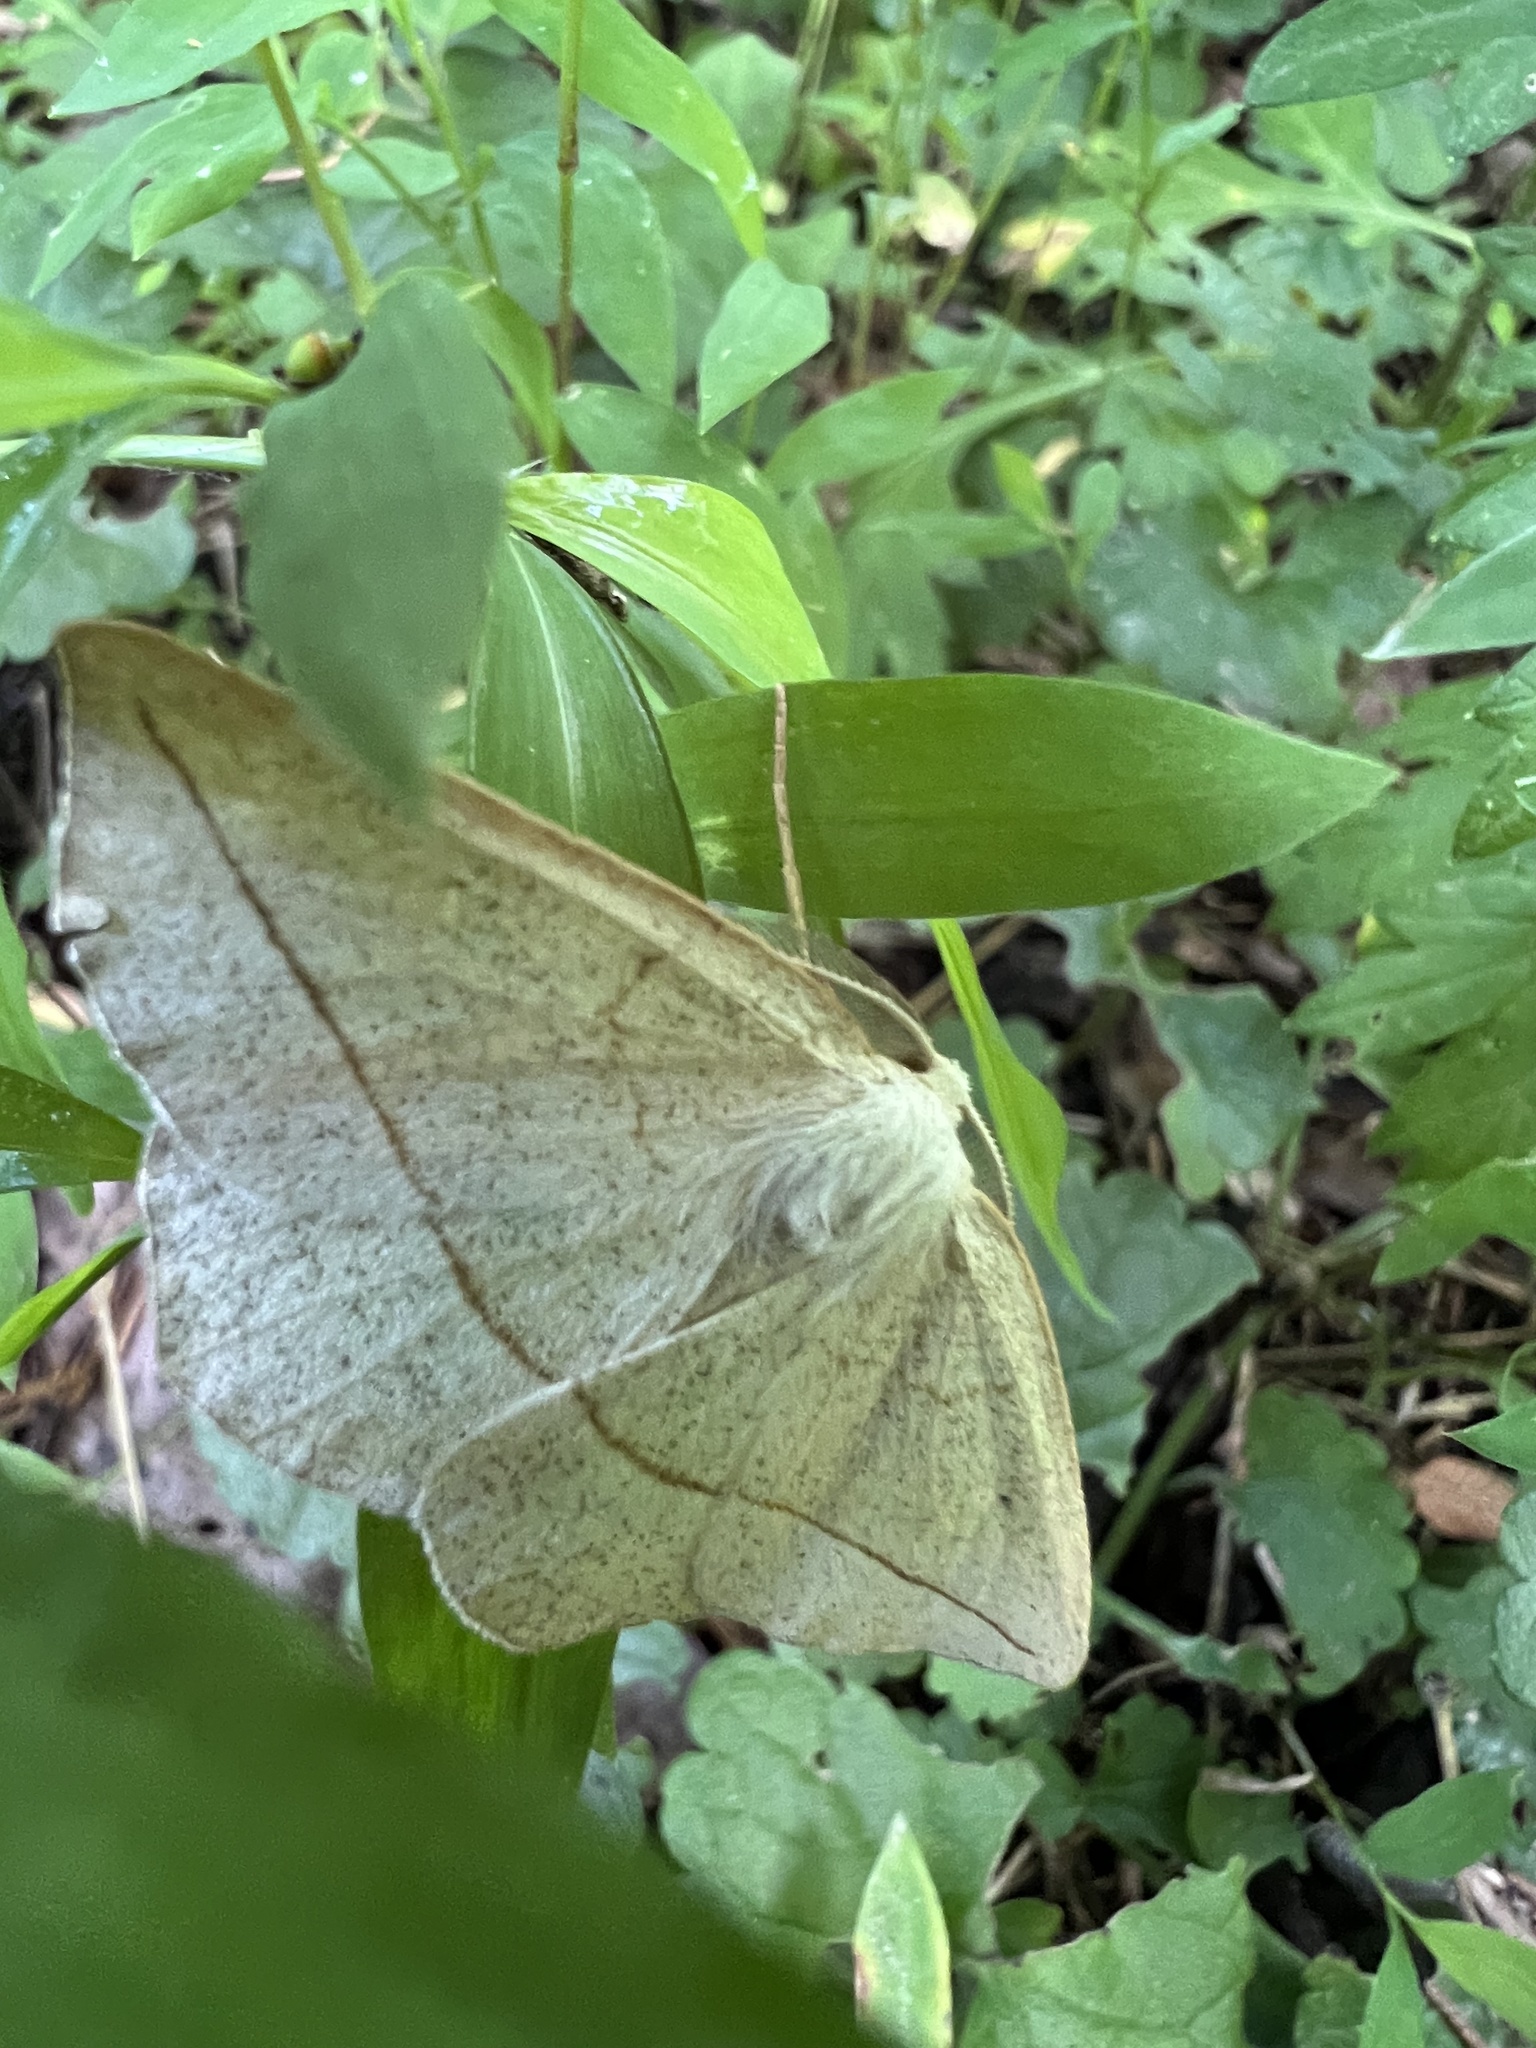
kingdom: Animalia
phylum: Arthropoda
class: Insecta
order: Lepidoptera
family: Geometridae
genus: Eusarca
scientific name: Eusarca confusaria
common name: Confused eusarca
